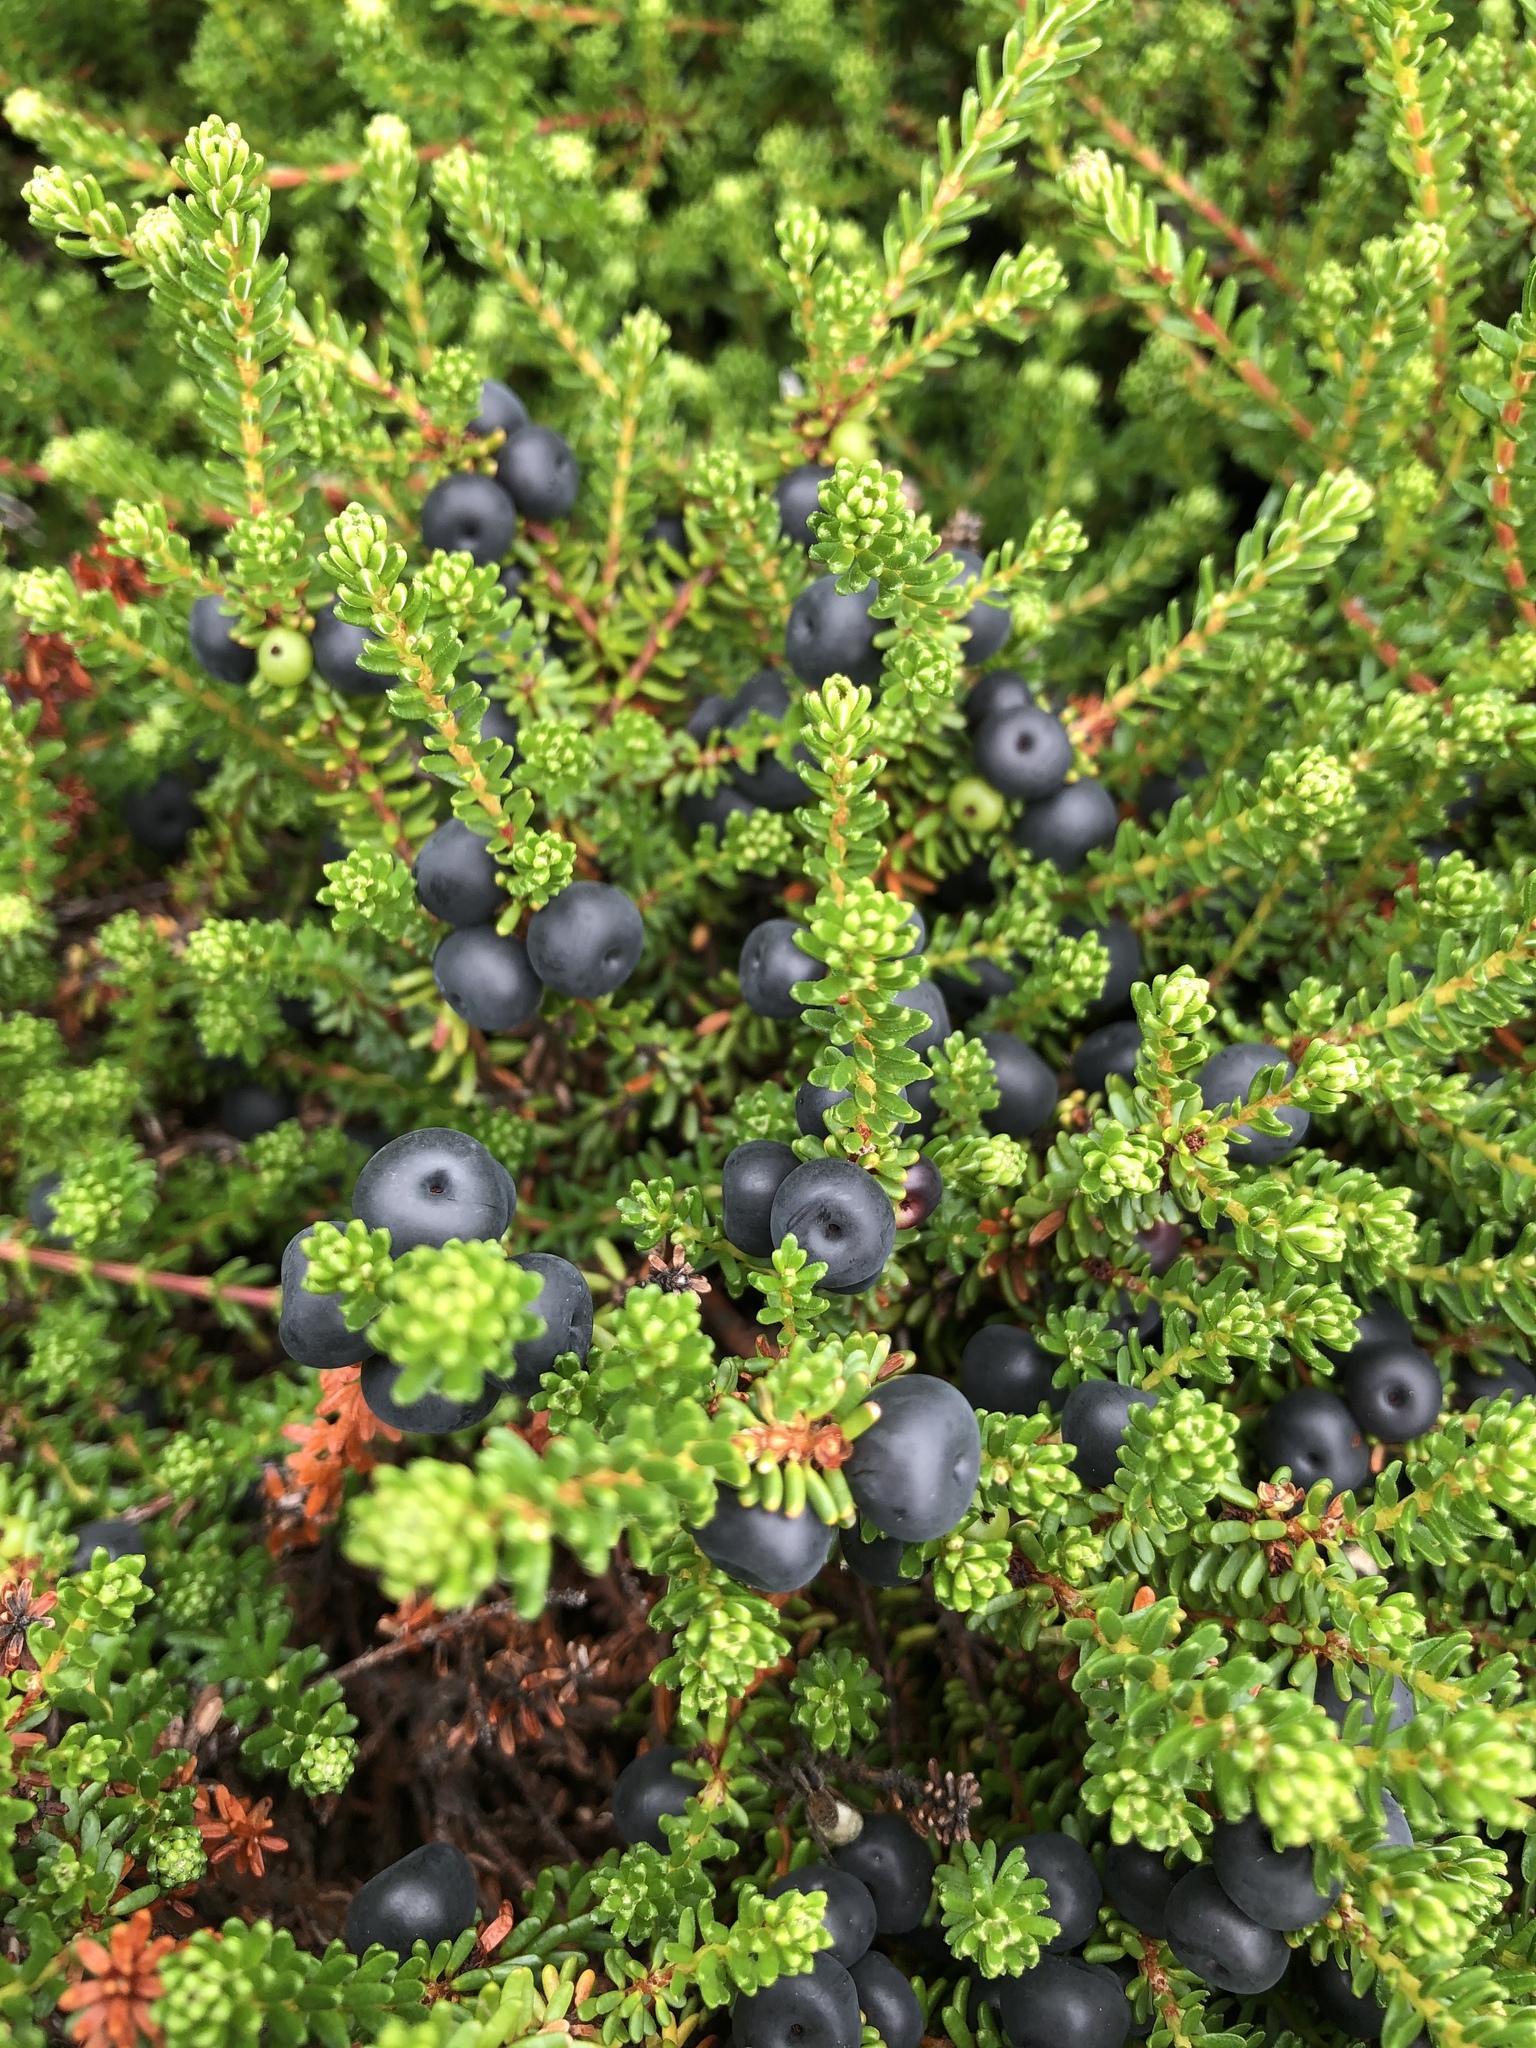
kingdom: Plantae
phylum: Tracheophyta
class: Magnoliopsida
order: Ericales
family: Ericaceae
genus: Empetrum
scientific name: Empetrum nigrum
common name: Black crowberry
